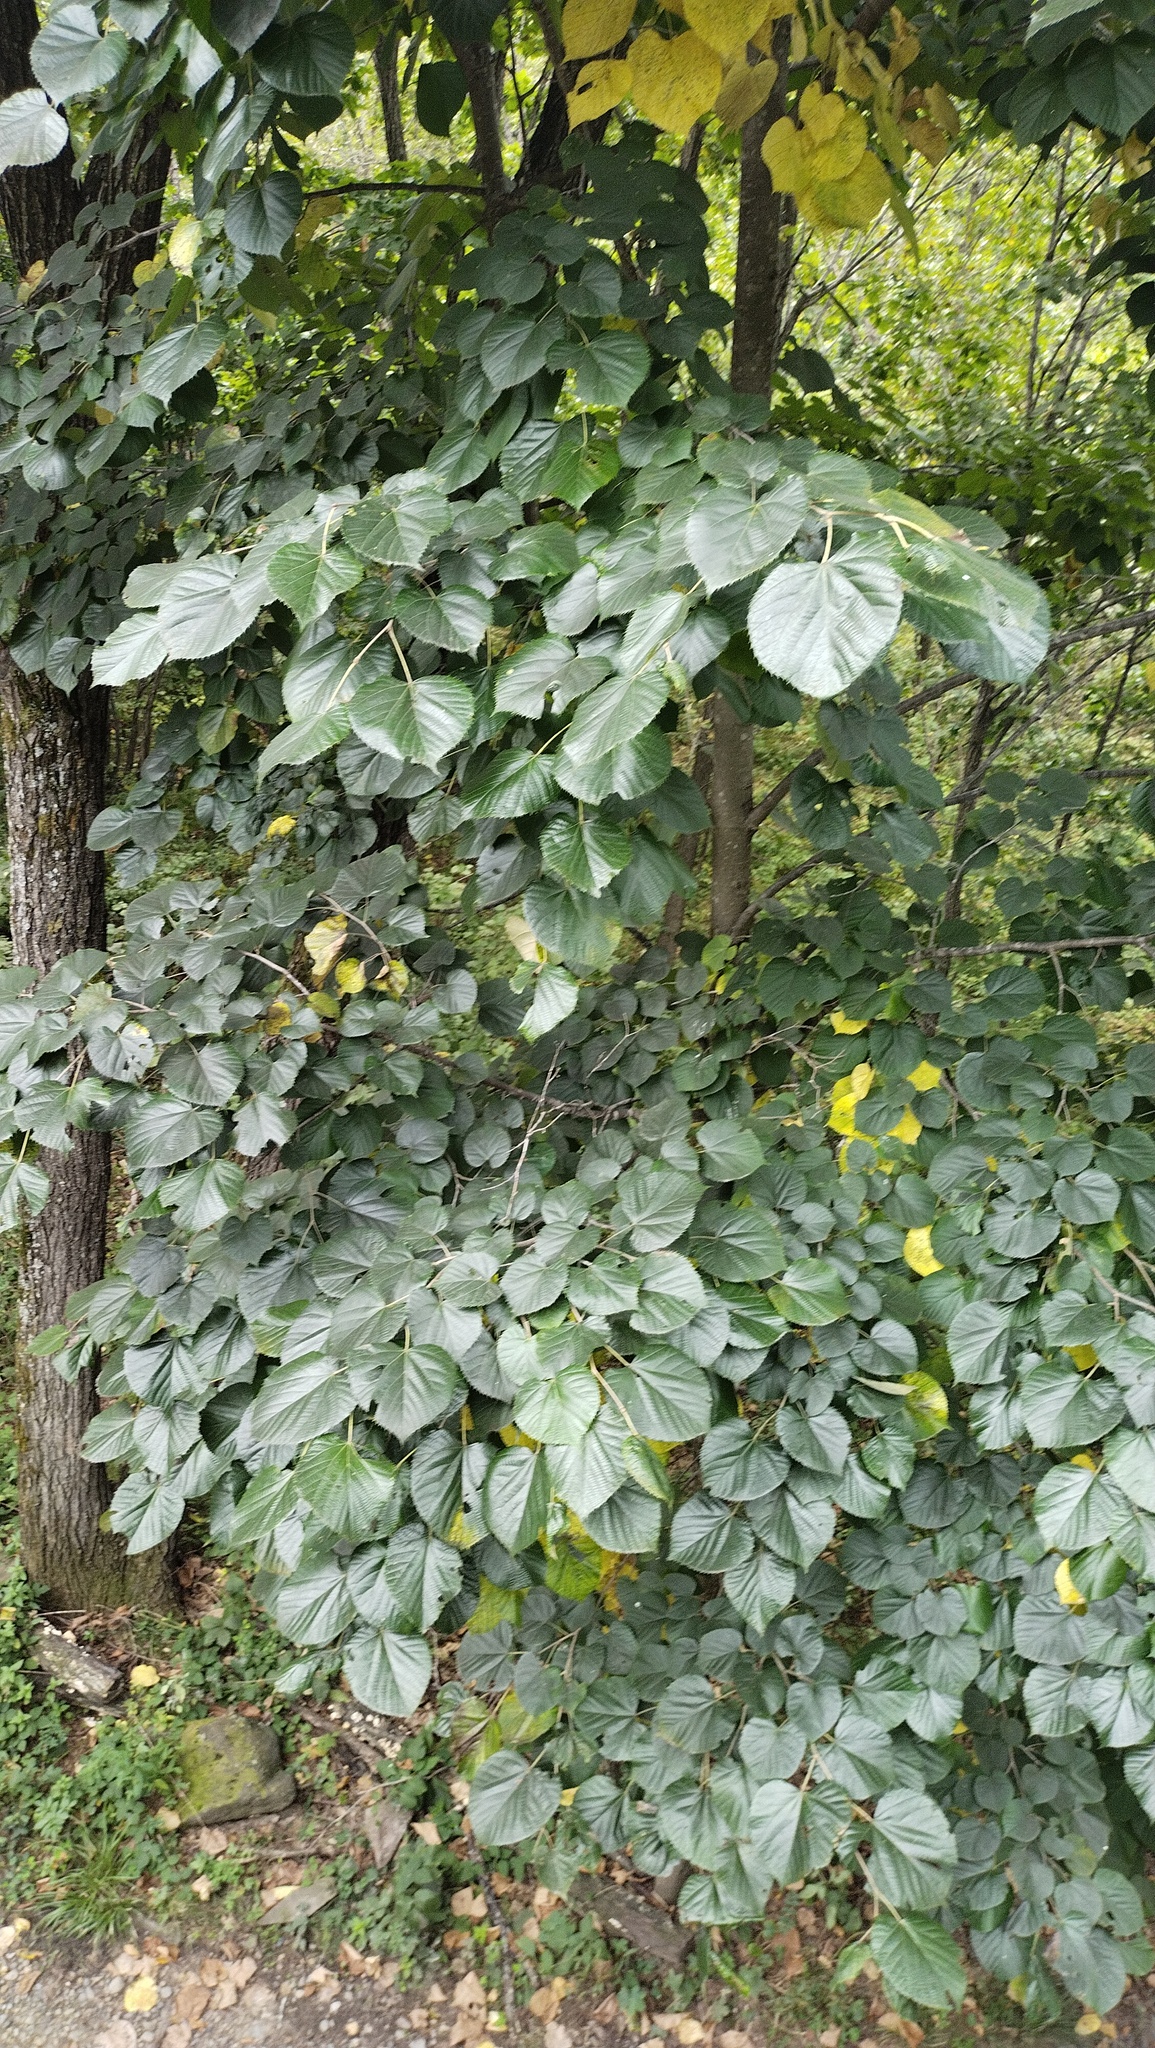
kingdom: Plantae
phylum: Tracheophyta
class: Magnoliopsida
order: Malvales
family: Malvaceae
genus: Tilia
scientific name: Tilia mandshurica
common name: Manchurian linden
